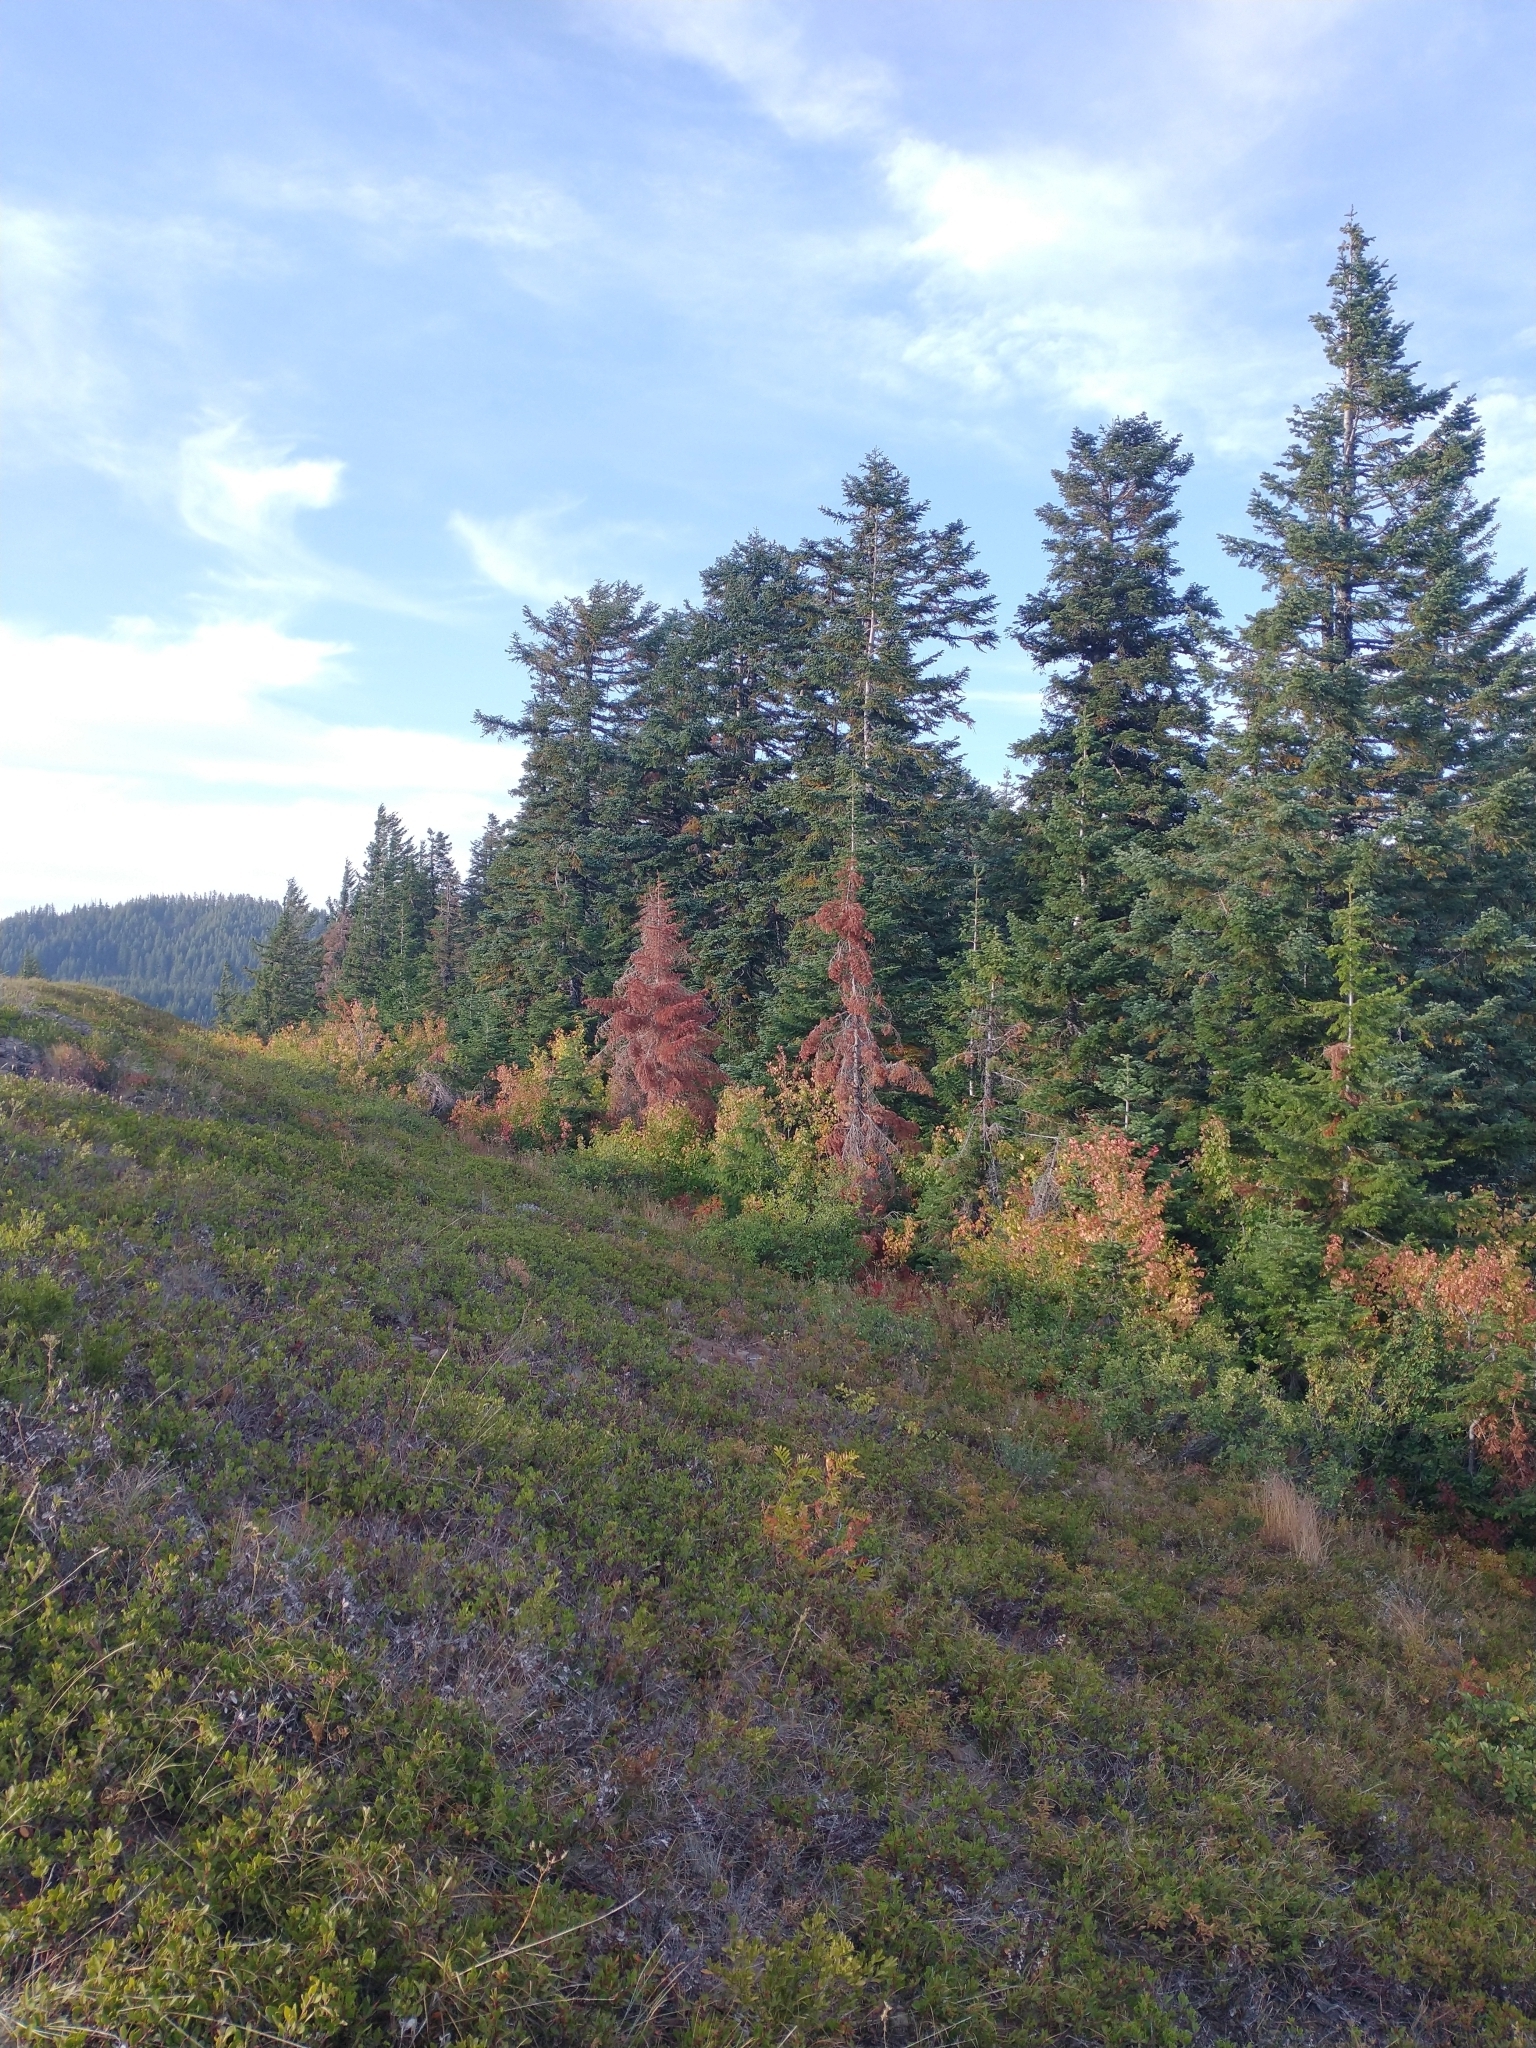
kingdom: Plantae
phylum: Tracheophyta
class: Pinopsida
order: Pinales
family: Pinaceae
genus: Abies
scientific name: Abies procera
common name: Noble fir
